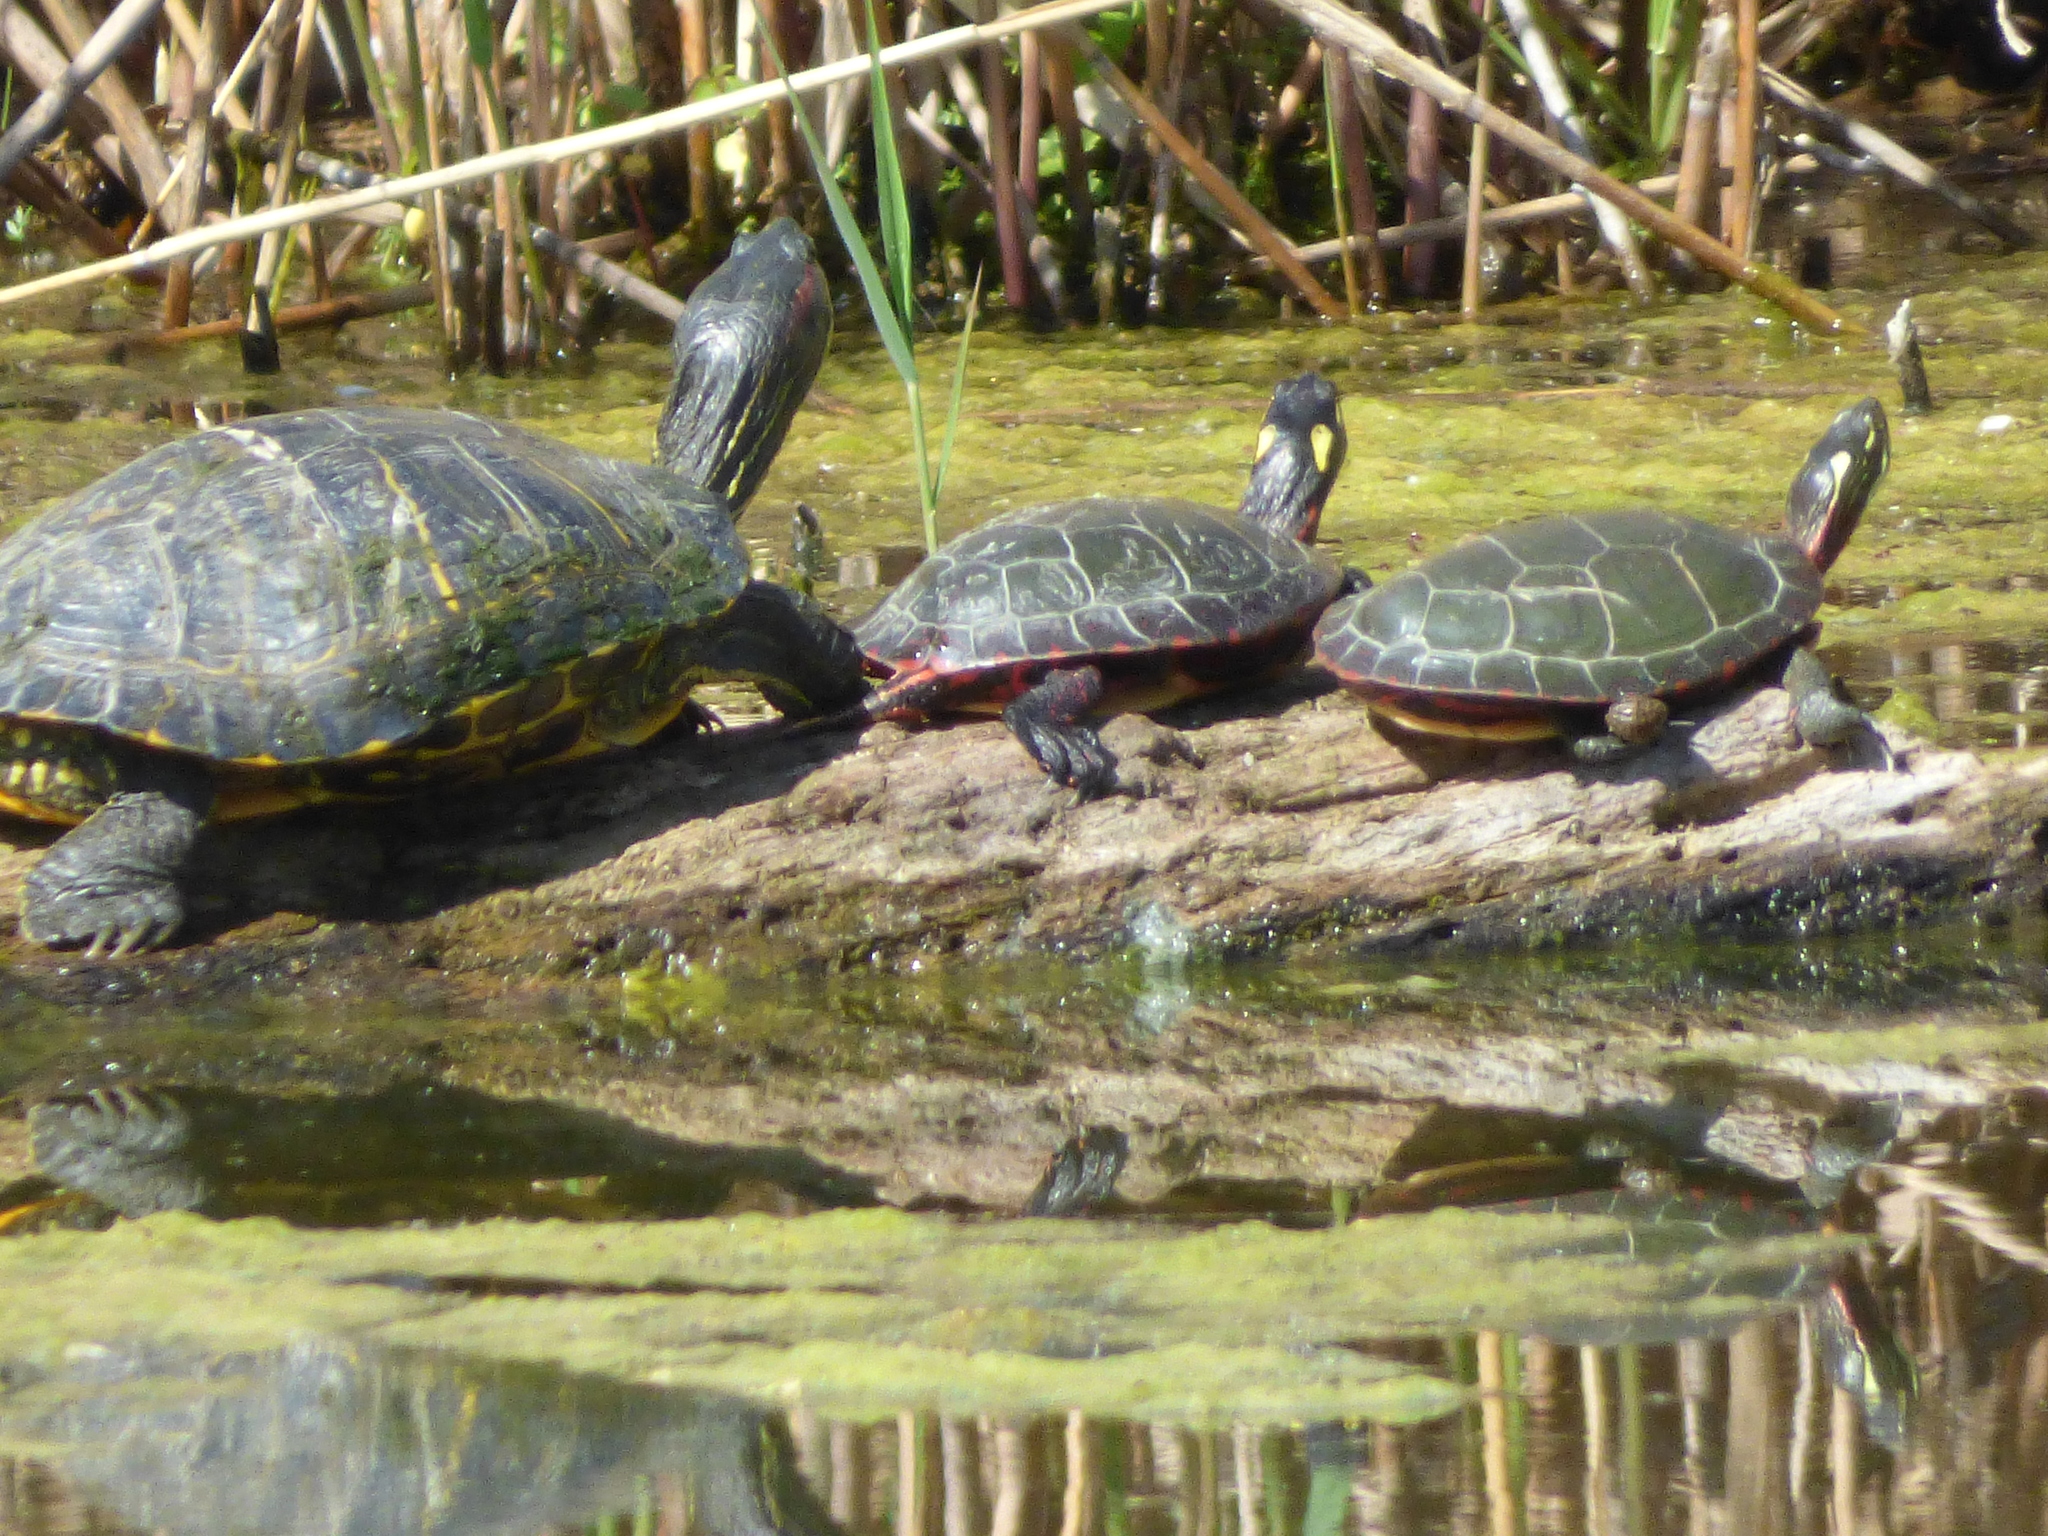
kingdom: Animalia
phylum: Chordata
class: Testudines
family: Emydidae
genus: Chrysemys
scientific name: Chrysemys picta
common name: Painted turtle
